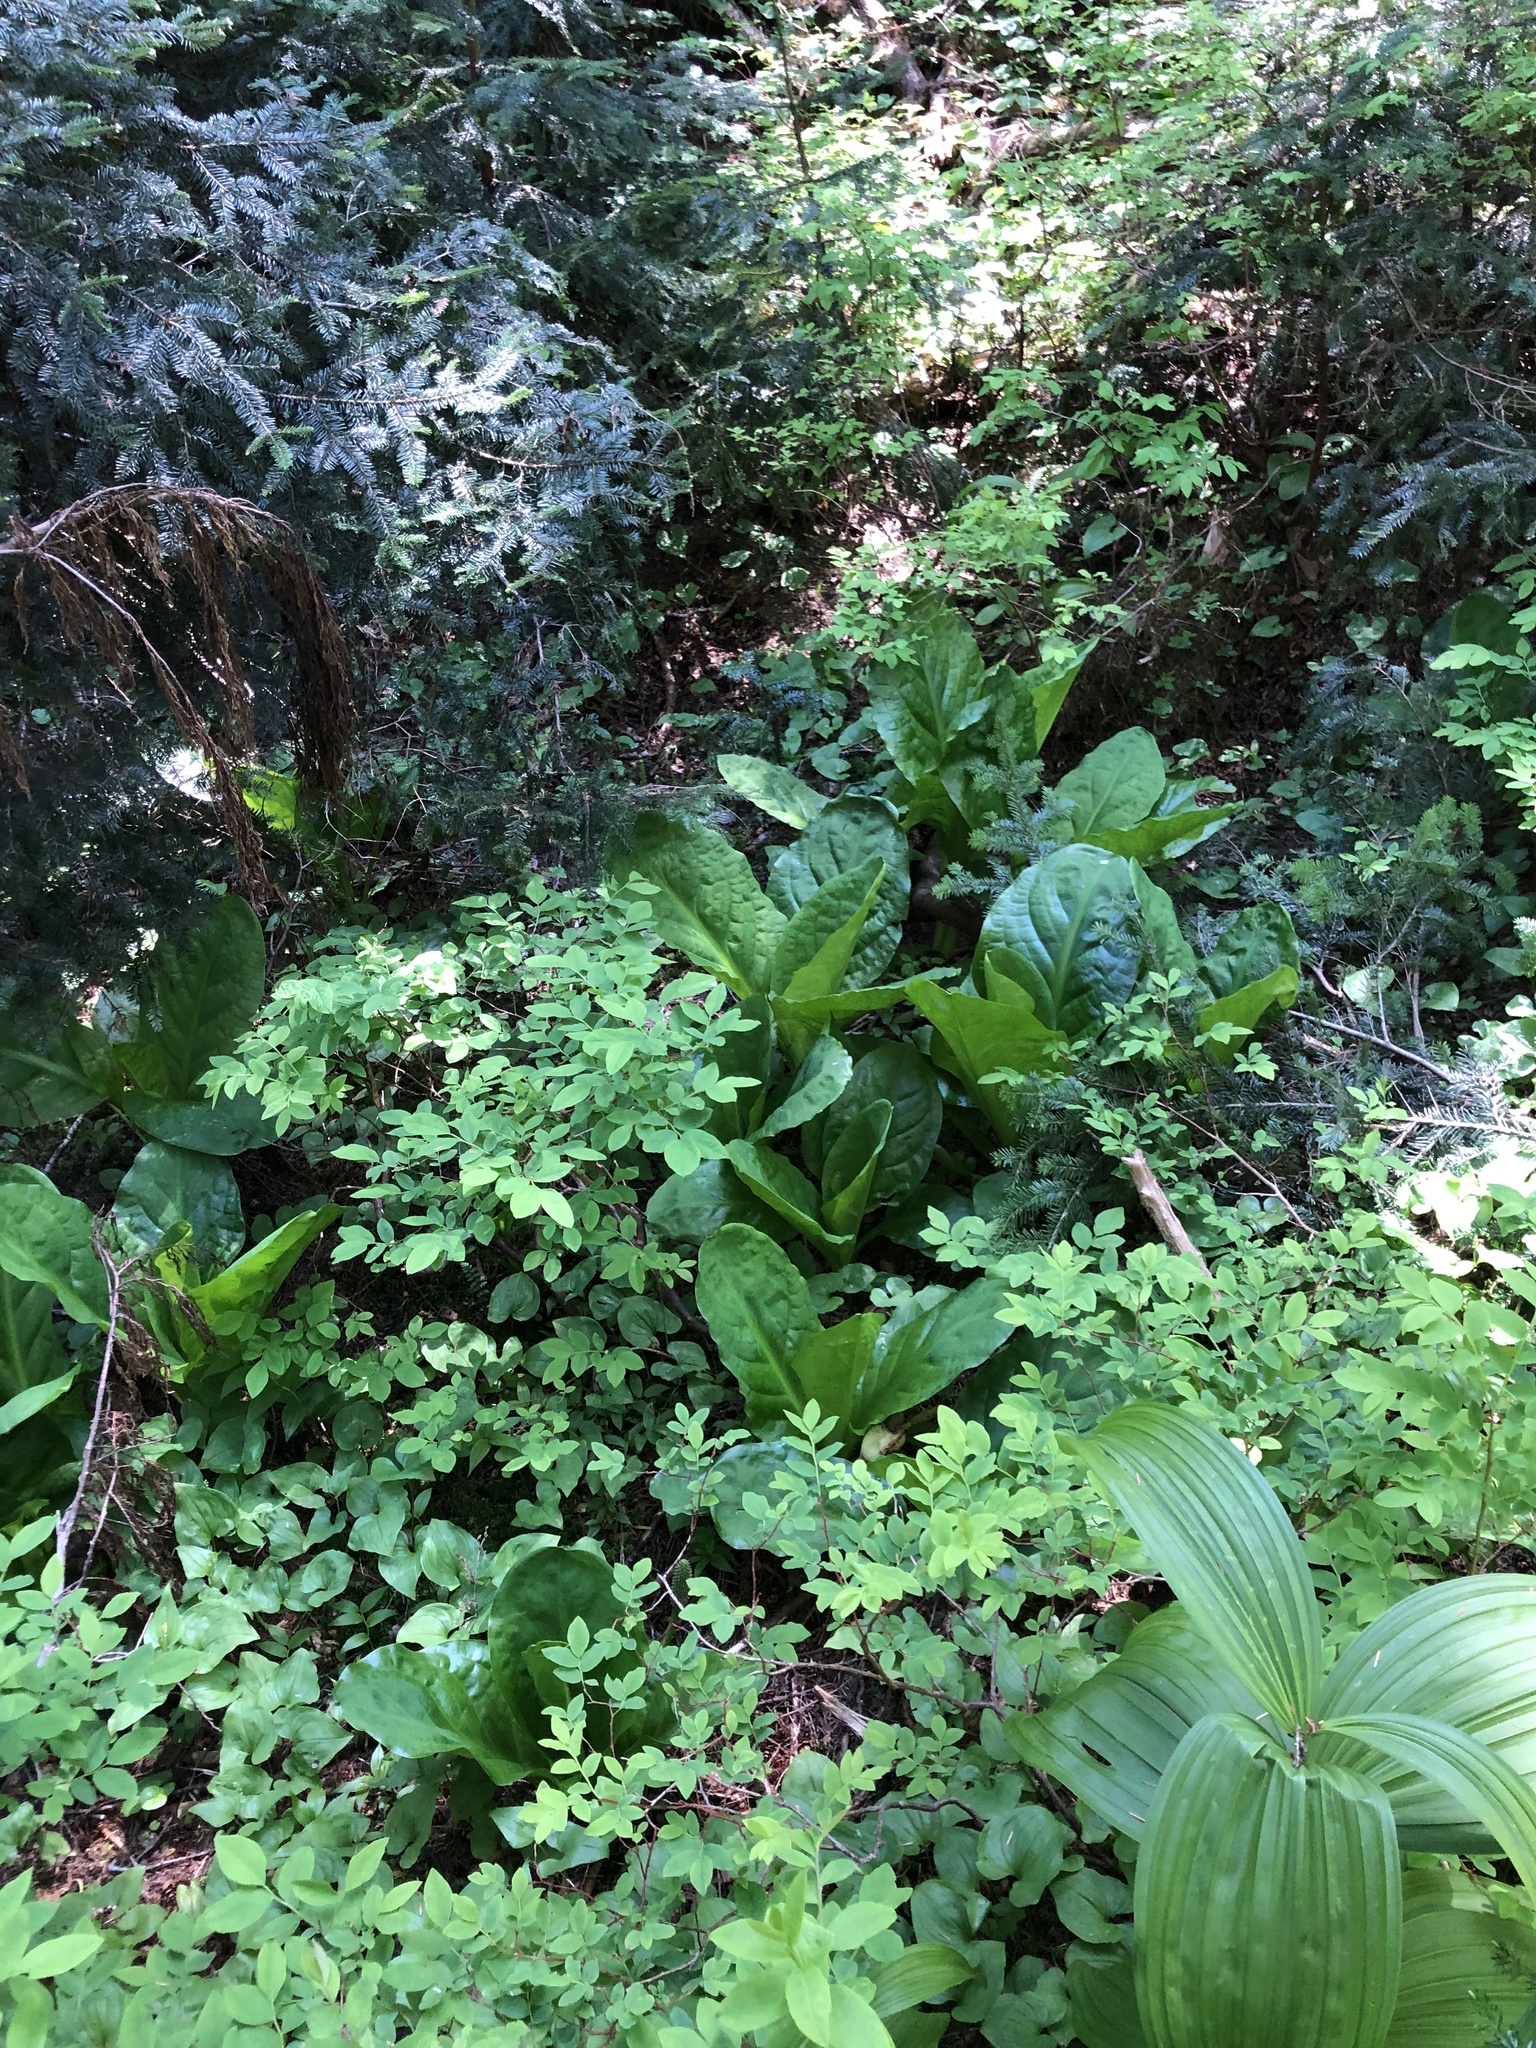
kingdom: Plantae
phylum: Tracheophyta
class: Liliopsida
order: Alismatales
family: Araceae
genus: Lysichiton
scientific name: Lysichiton americanus
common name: American skunk cabbage
